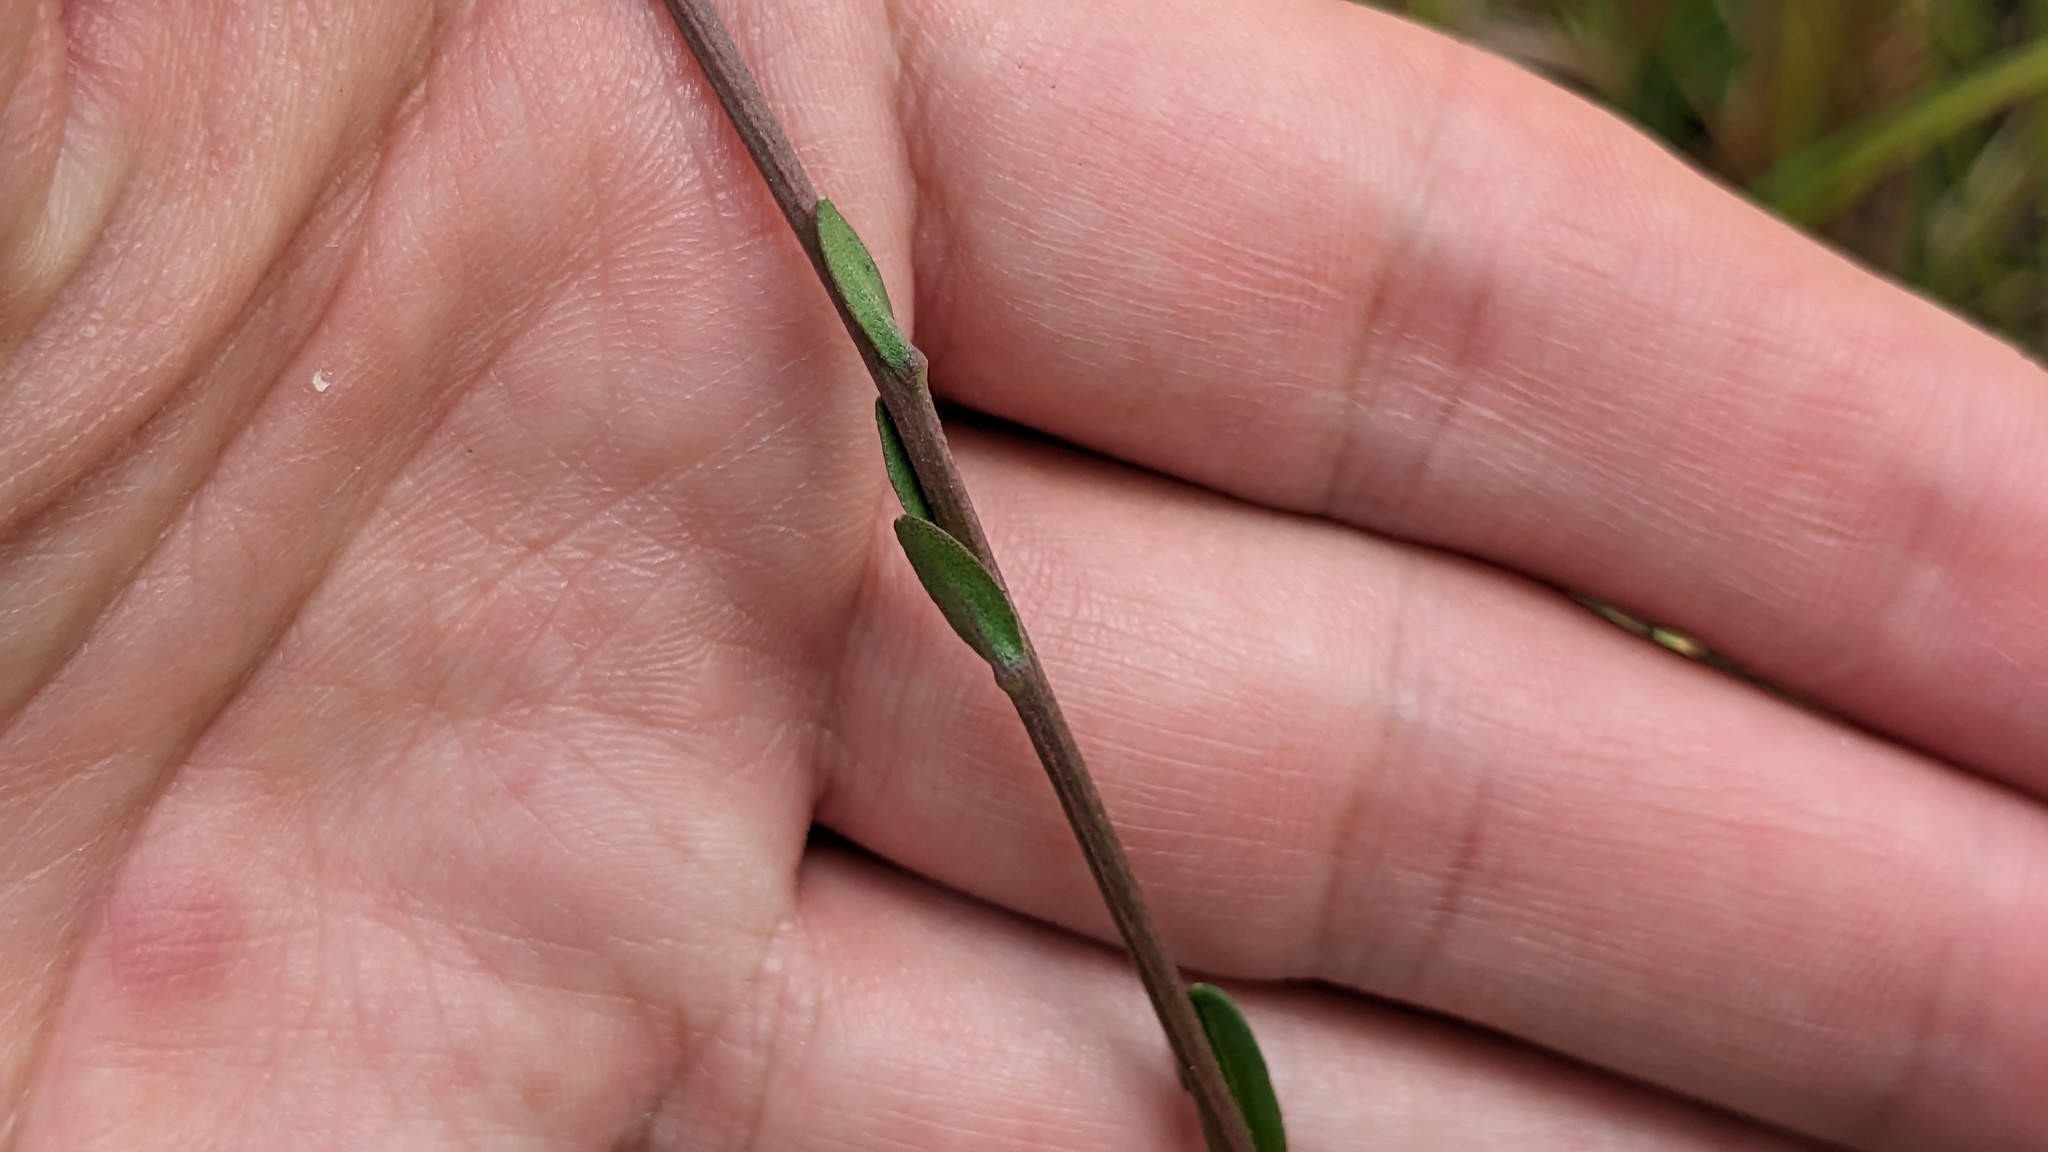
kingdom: Plantae
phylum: Tracheophyta
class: Magnoliopsida
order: Asterales
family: Asteraceae
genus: Carphephorus
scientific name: Carphephorus odoratissimus
